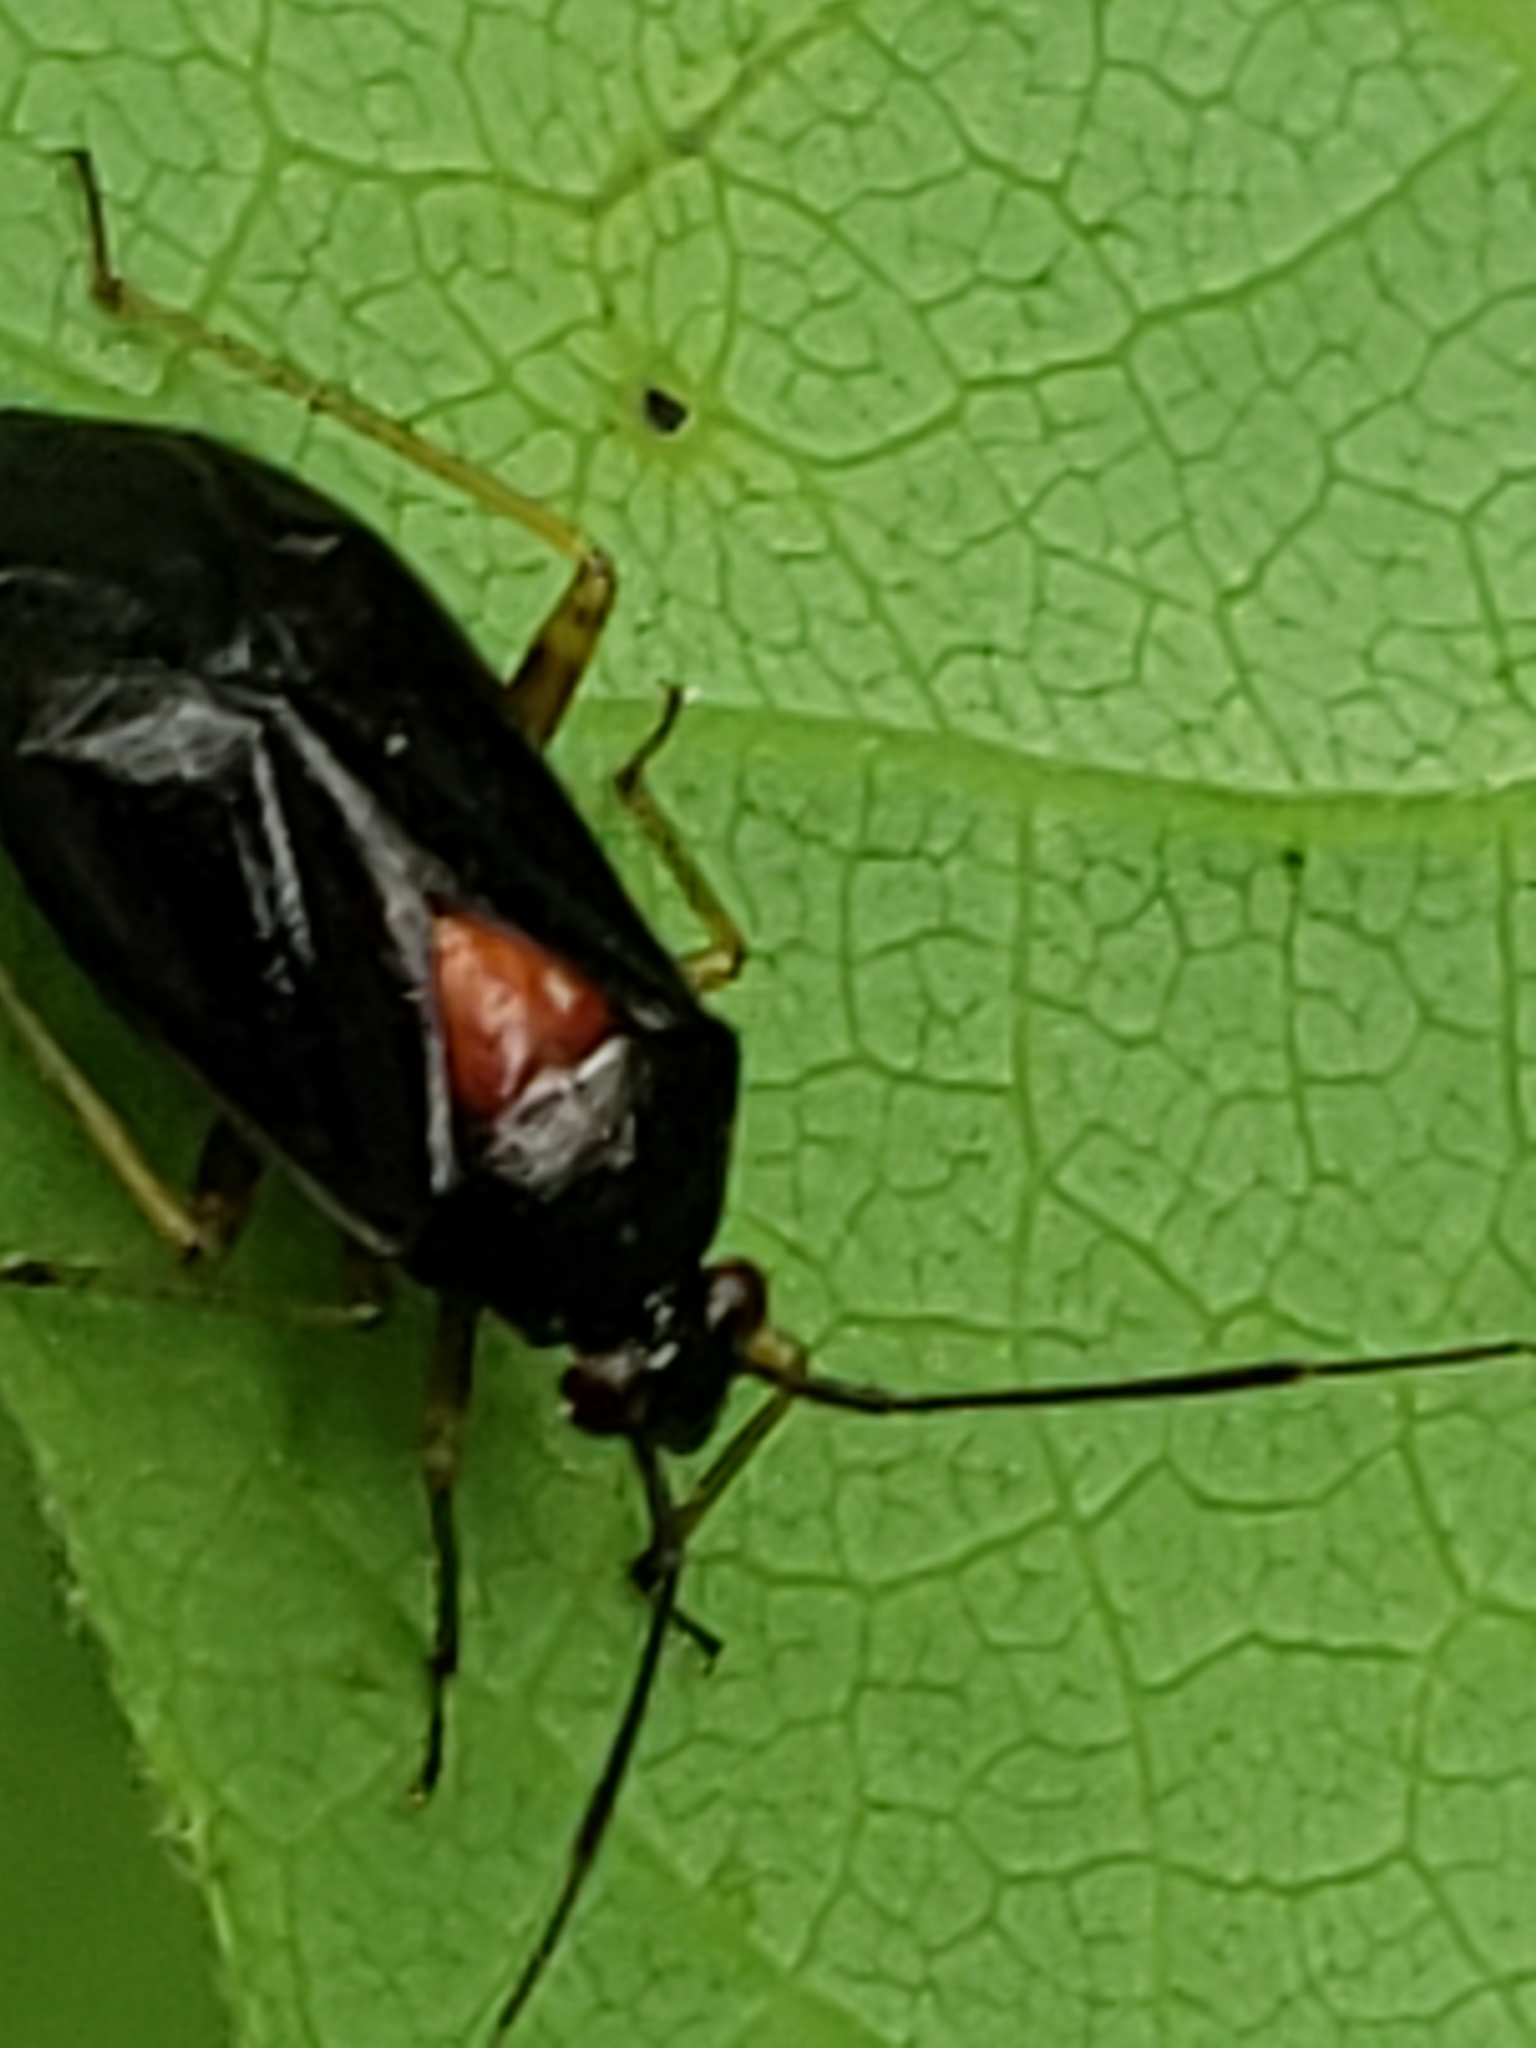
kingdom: Animalia
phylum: Arthropoda
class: Insecta
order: Hemiptera
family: Miridae
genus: Deraeocoris
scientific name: Deraeocoris sayi
